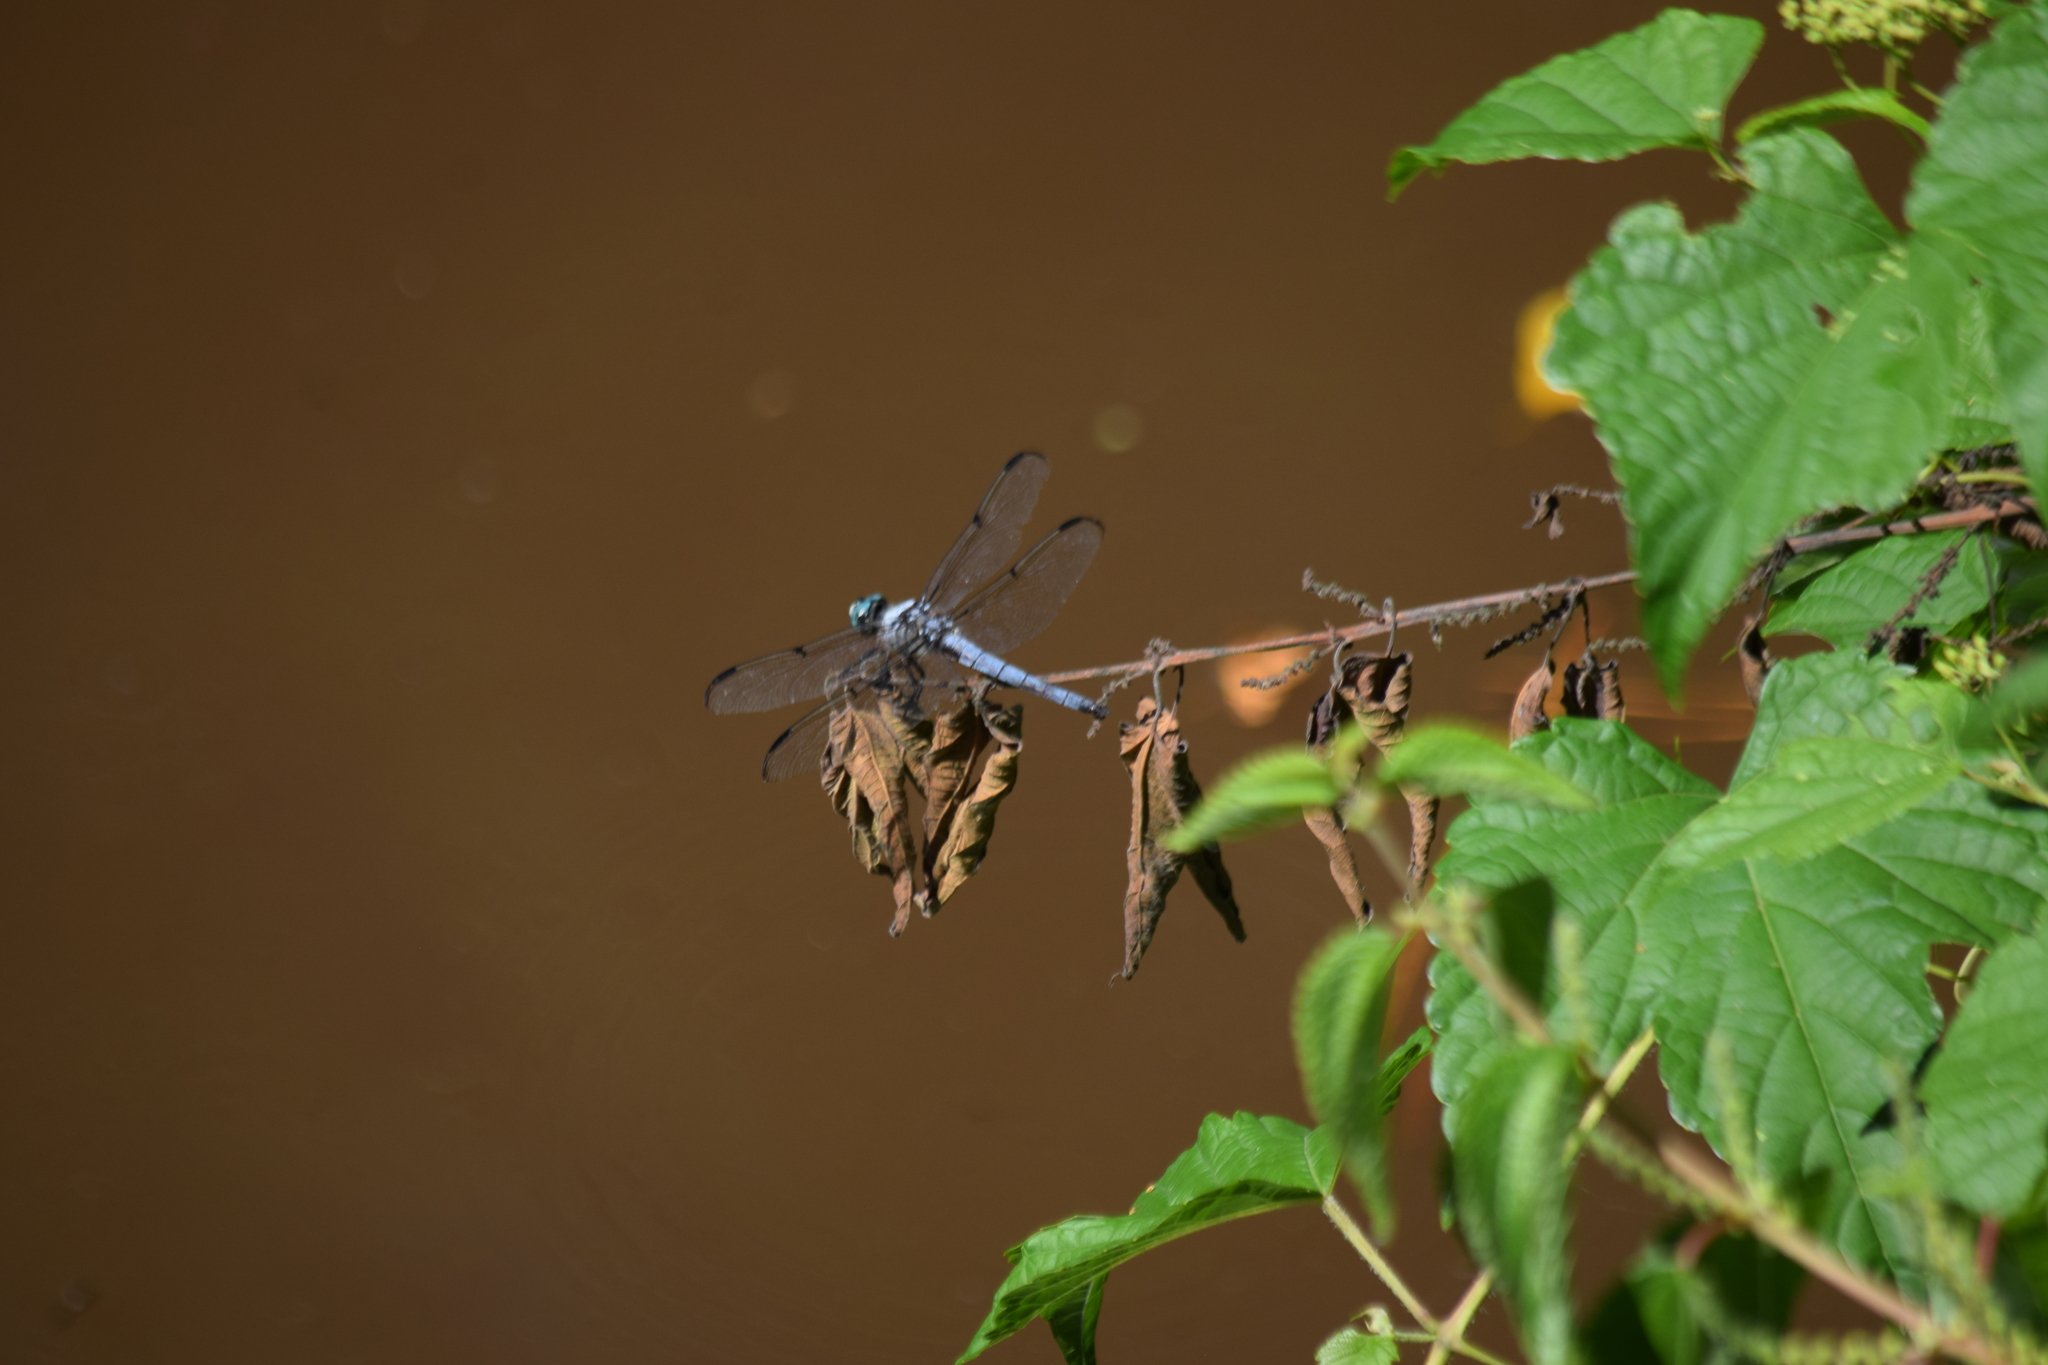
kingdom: Animalia
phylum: Arthropoda
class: Insecta
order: Odonata
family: Libellulidae
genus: Libellula
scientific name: Libellula vibrans
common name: Great blue skimmer
